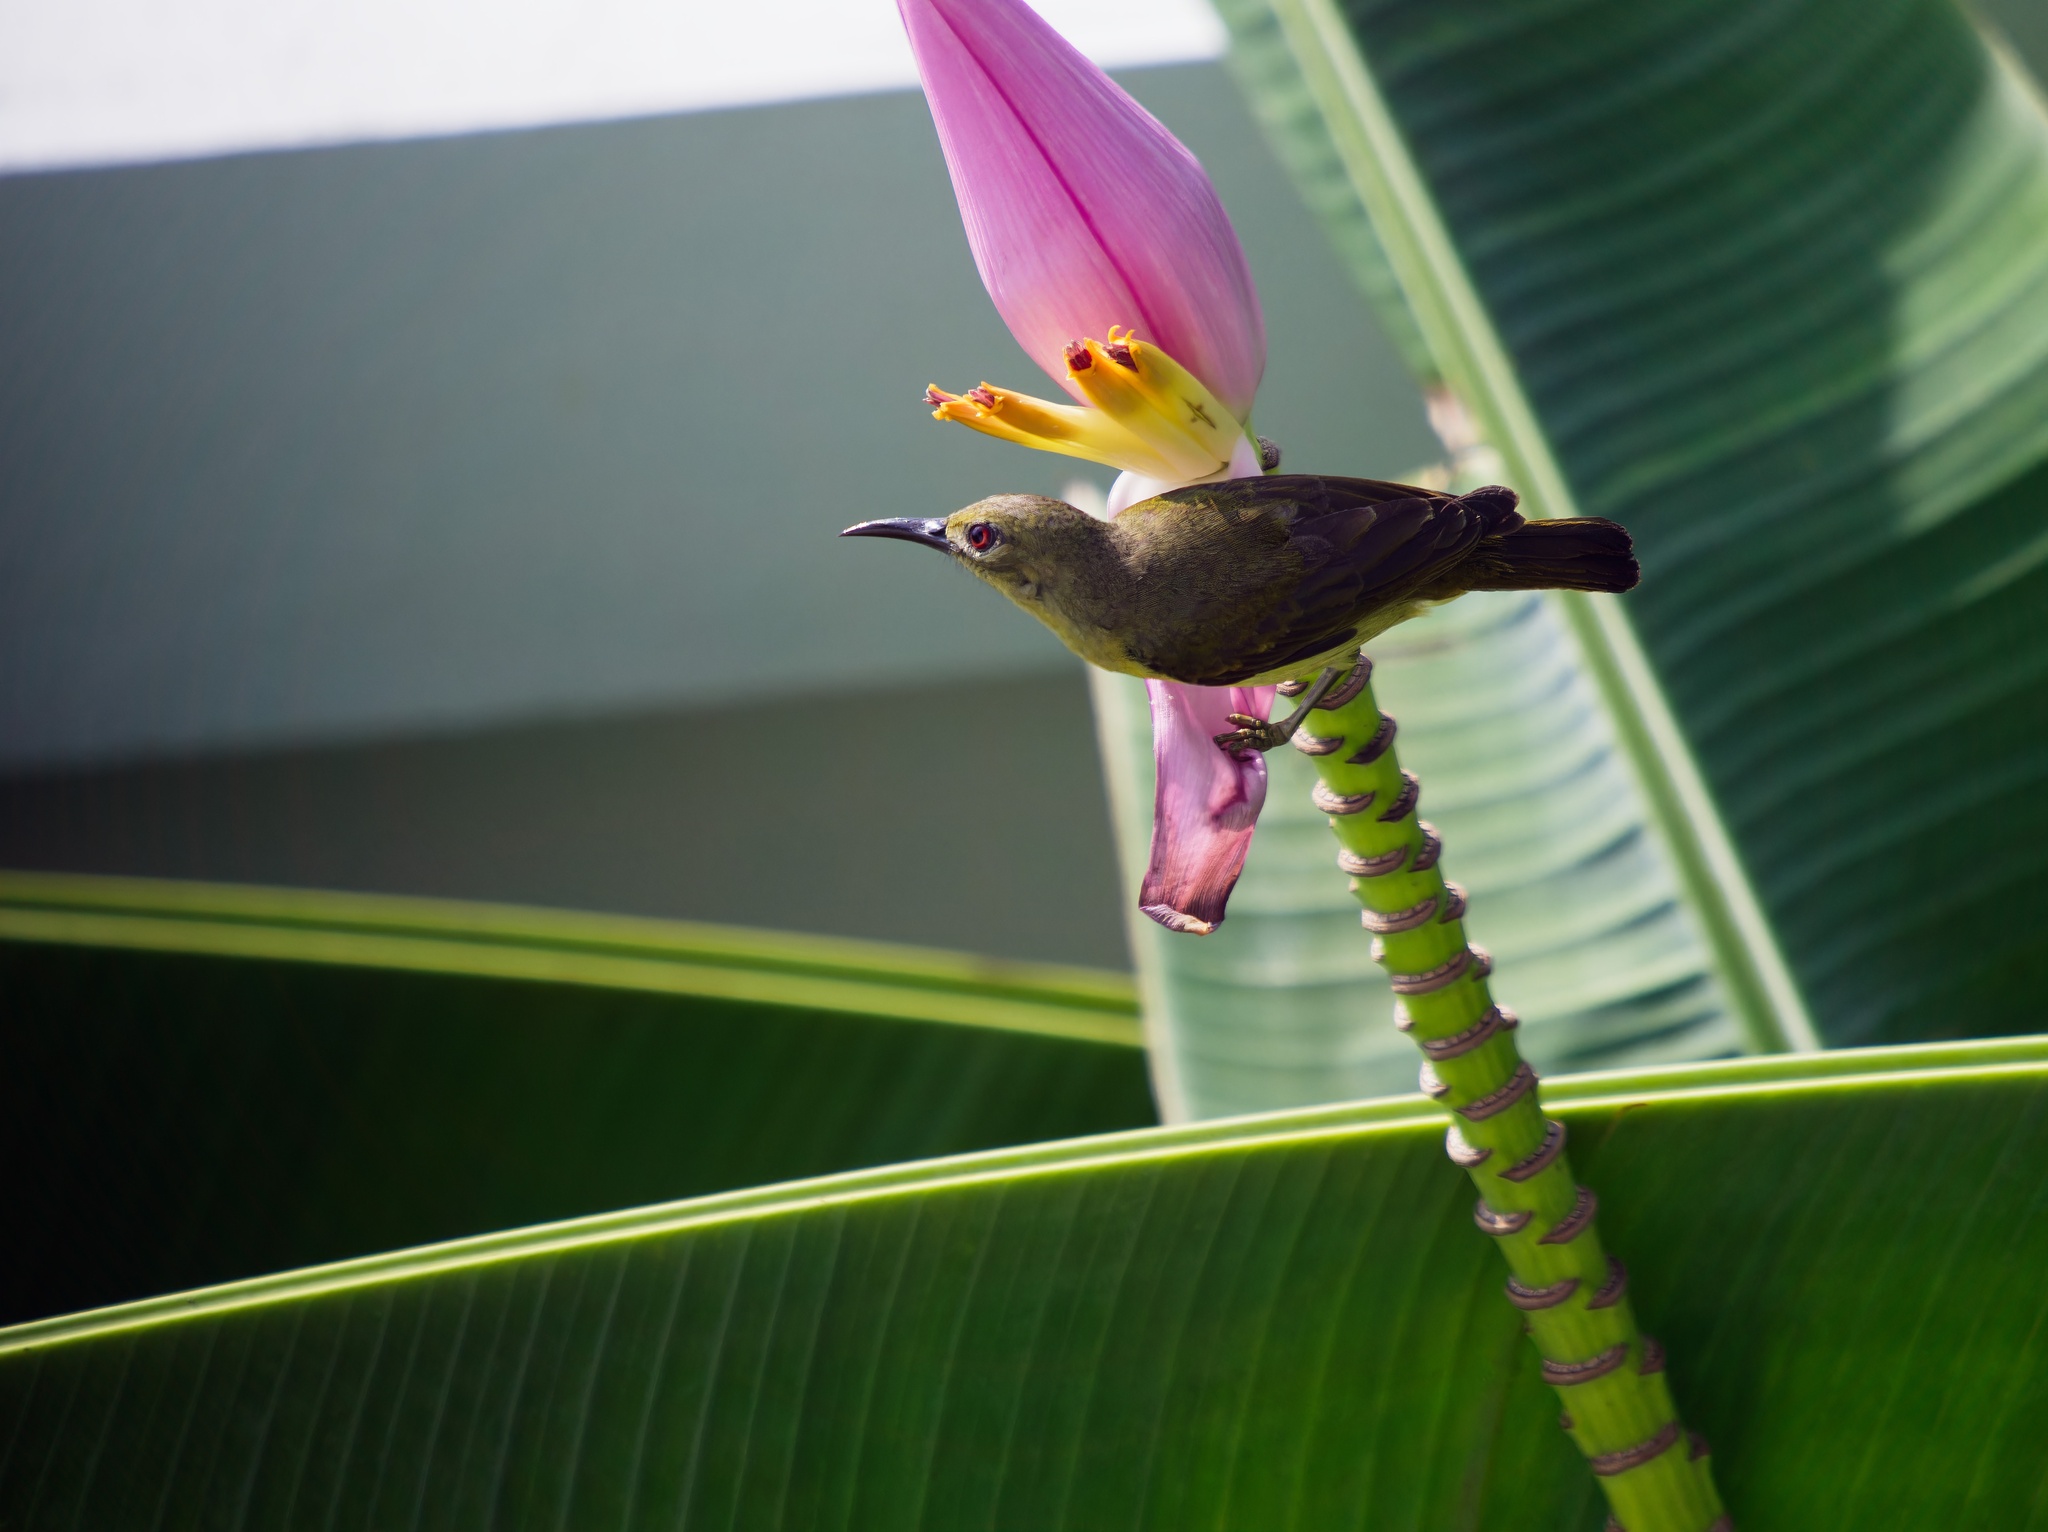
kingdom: Animalia
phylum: Chordata
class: Aves
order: Passeriformes
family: Nectariniidae
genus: Anthreptes
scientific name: Anthreptes malacensis
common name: Brown-throated sunbird
